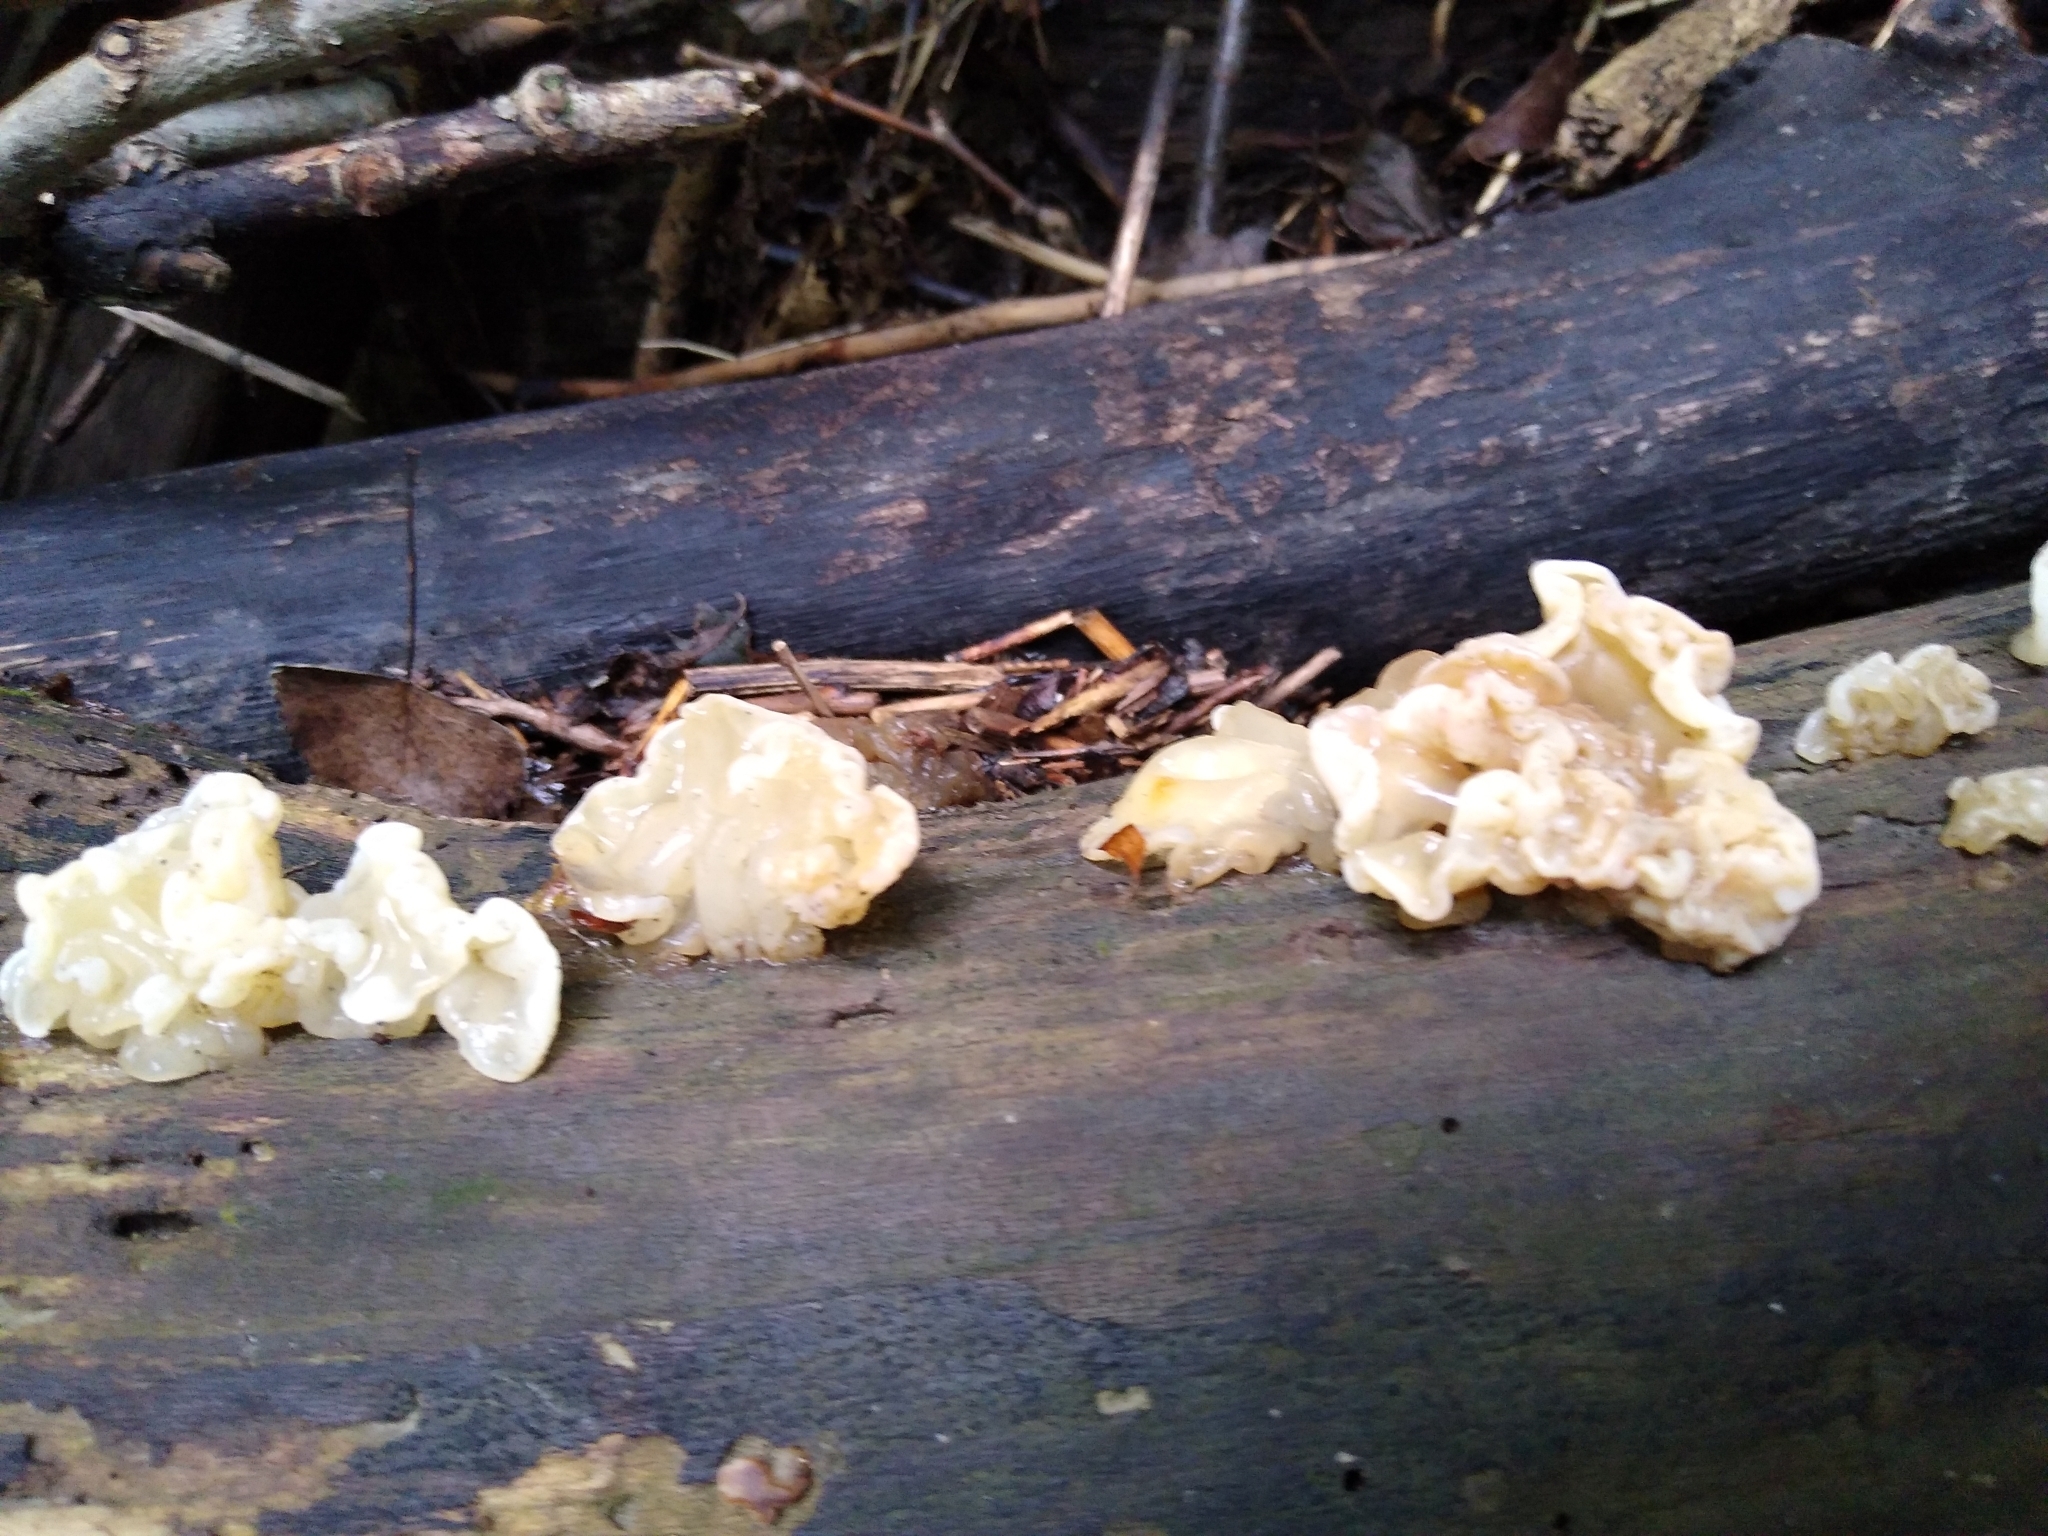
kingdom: Fungi
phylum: Basidiomycota
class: Agaricomycetes
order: Auriculariales
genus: Ductifera
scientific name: Ductifera pululahuana
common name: White jelly fungus
